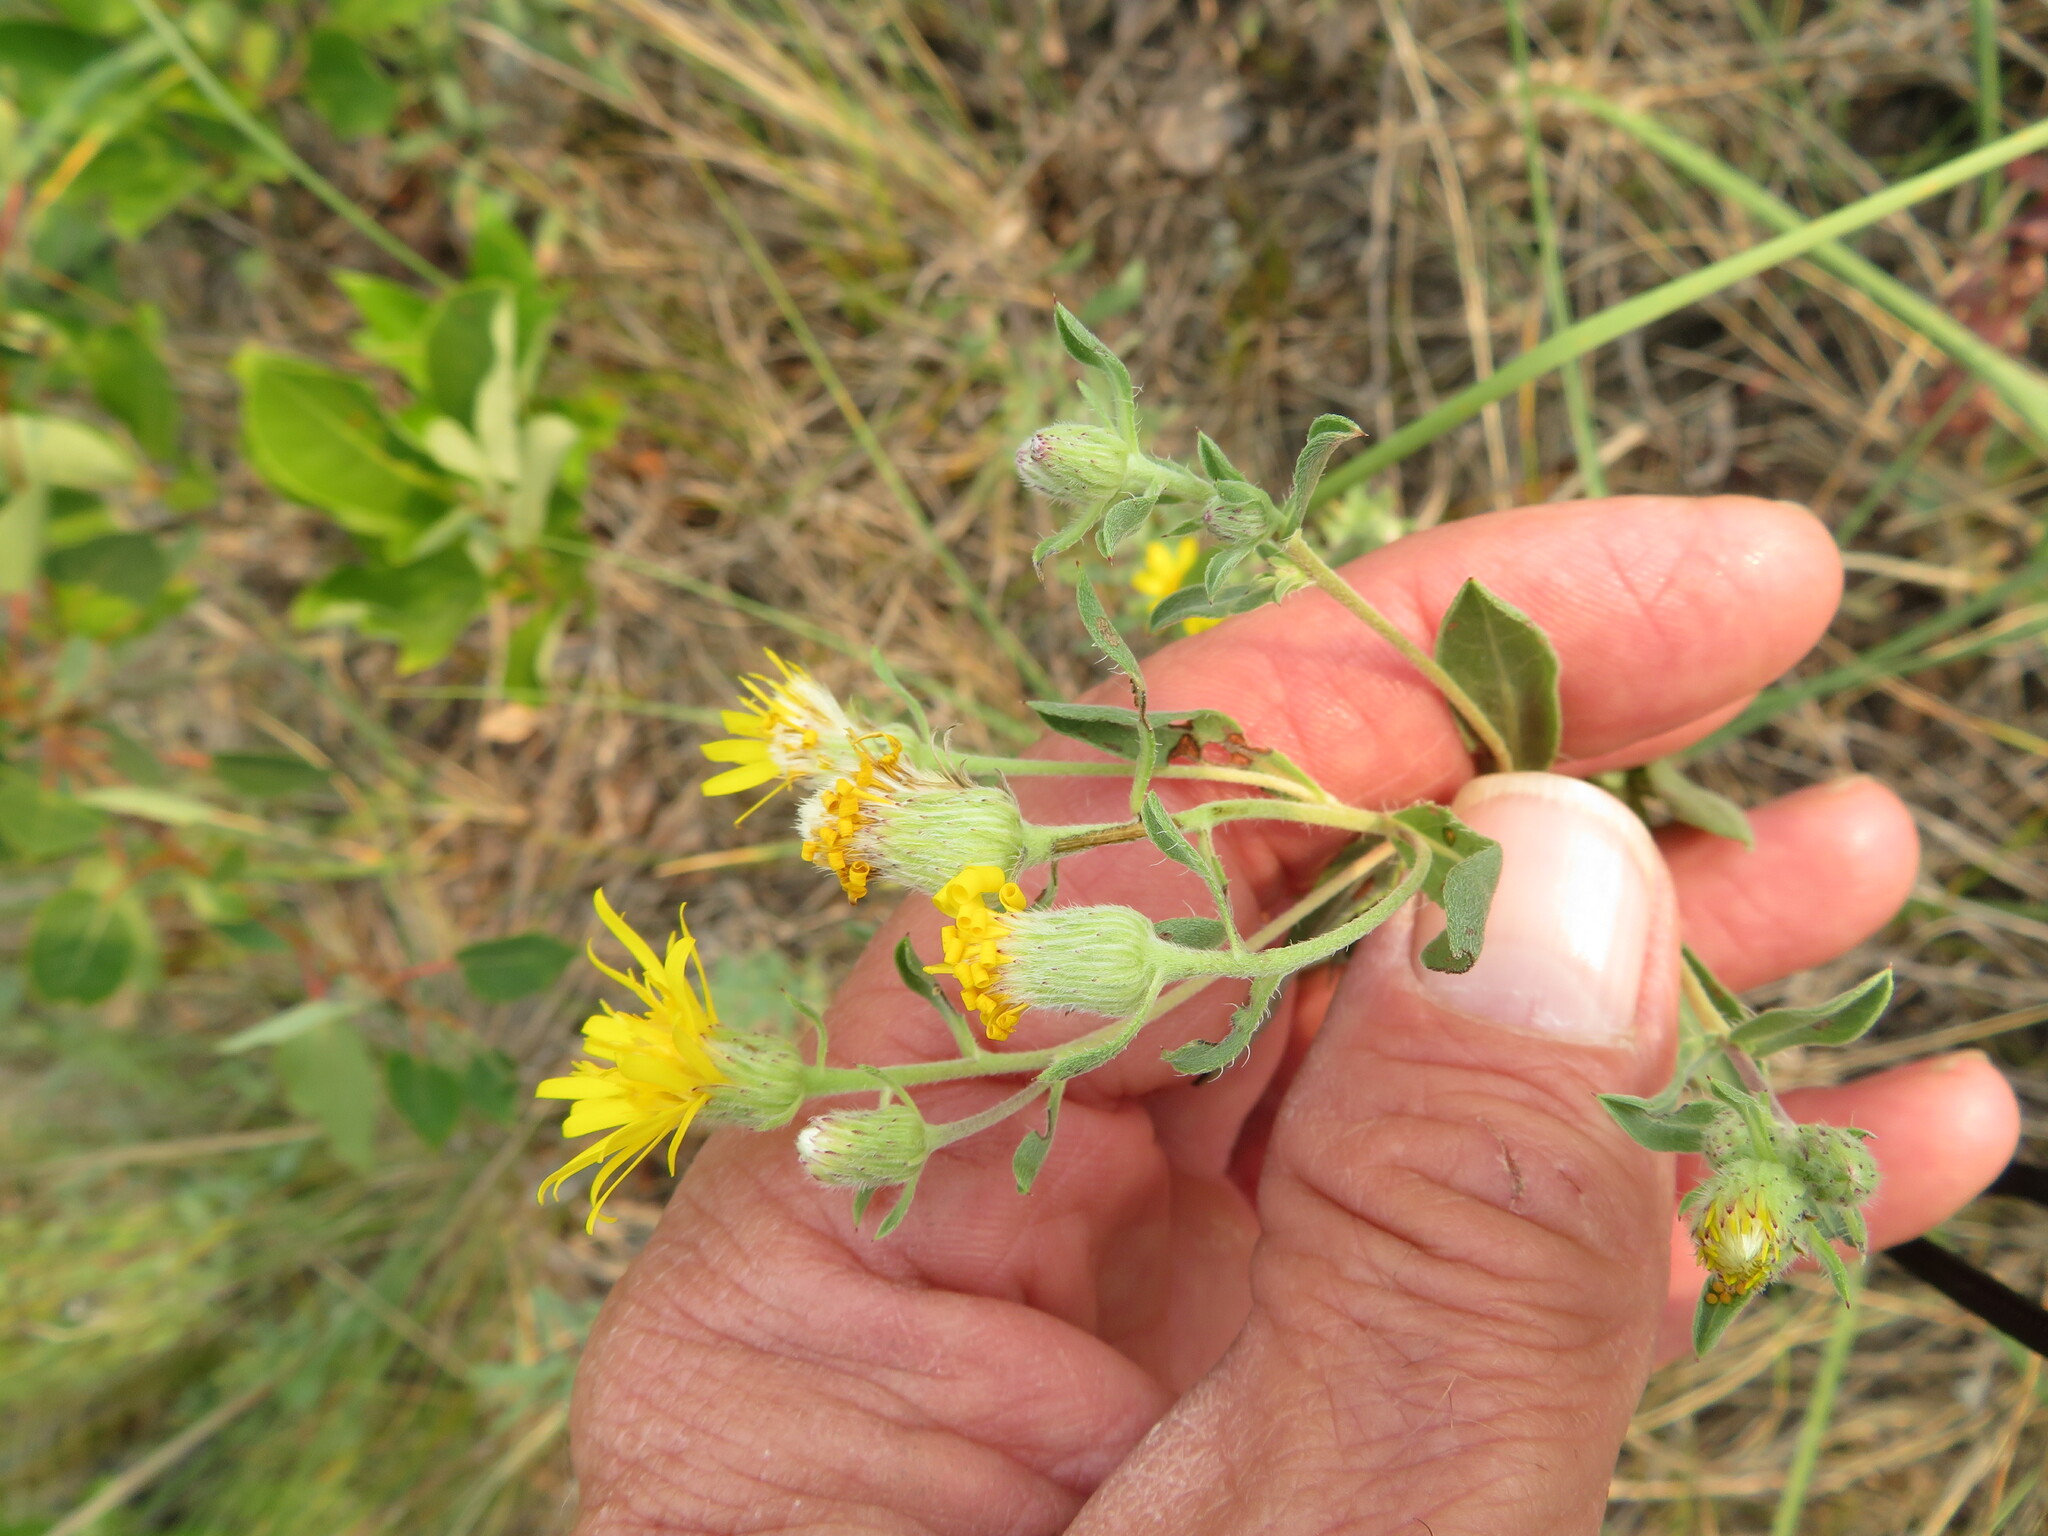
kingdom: Plantae
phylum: Tracheophyta
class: Magnoliopsida
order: Asterales
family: Asteraceae
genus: Heterotheca
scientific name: Heterotheca villosa
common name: Hairy false goldenaster
